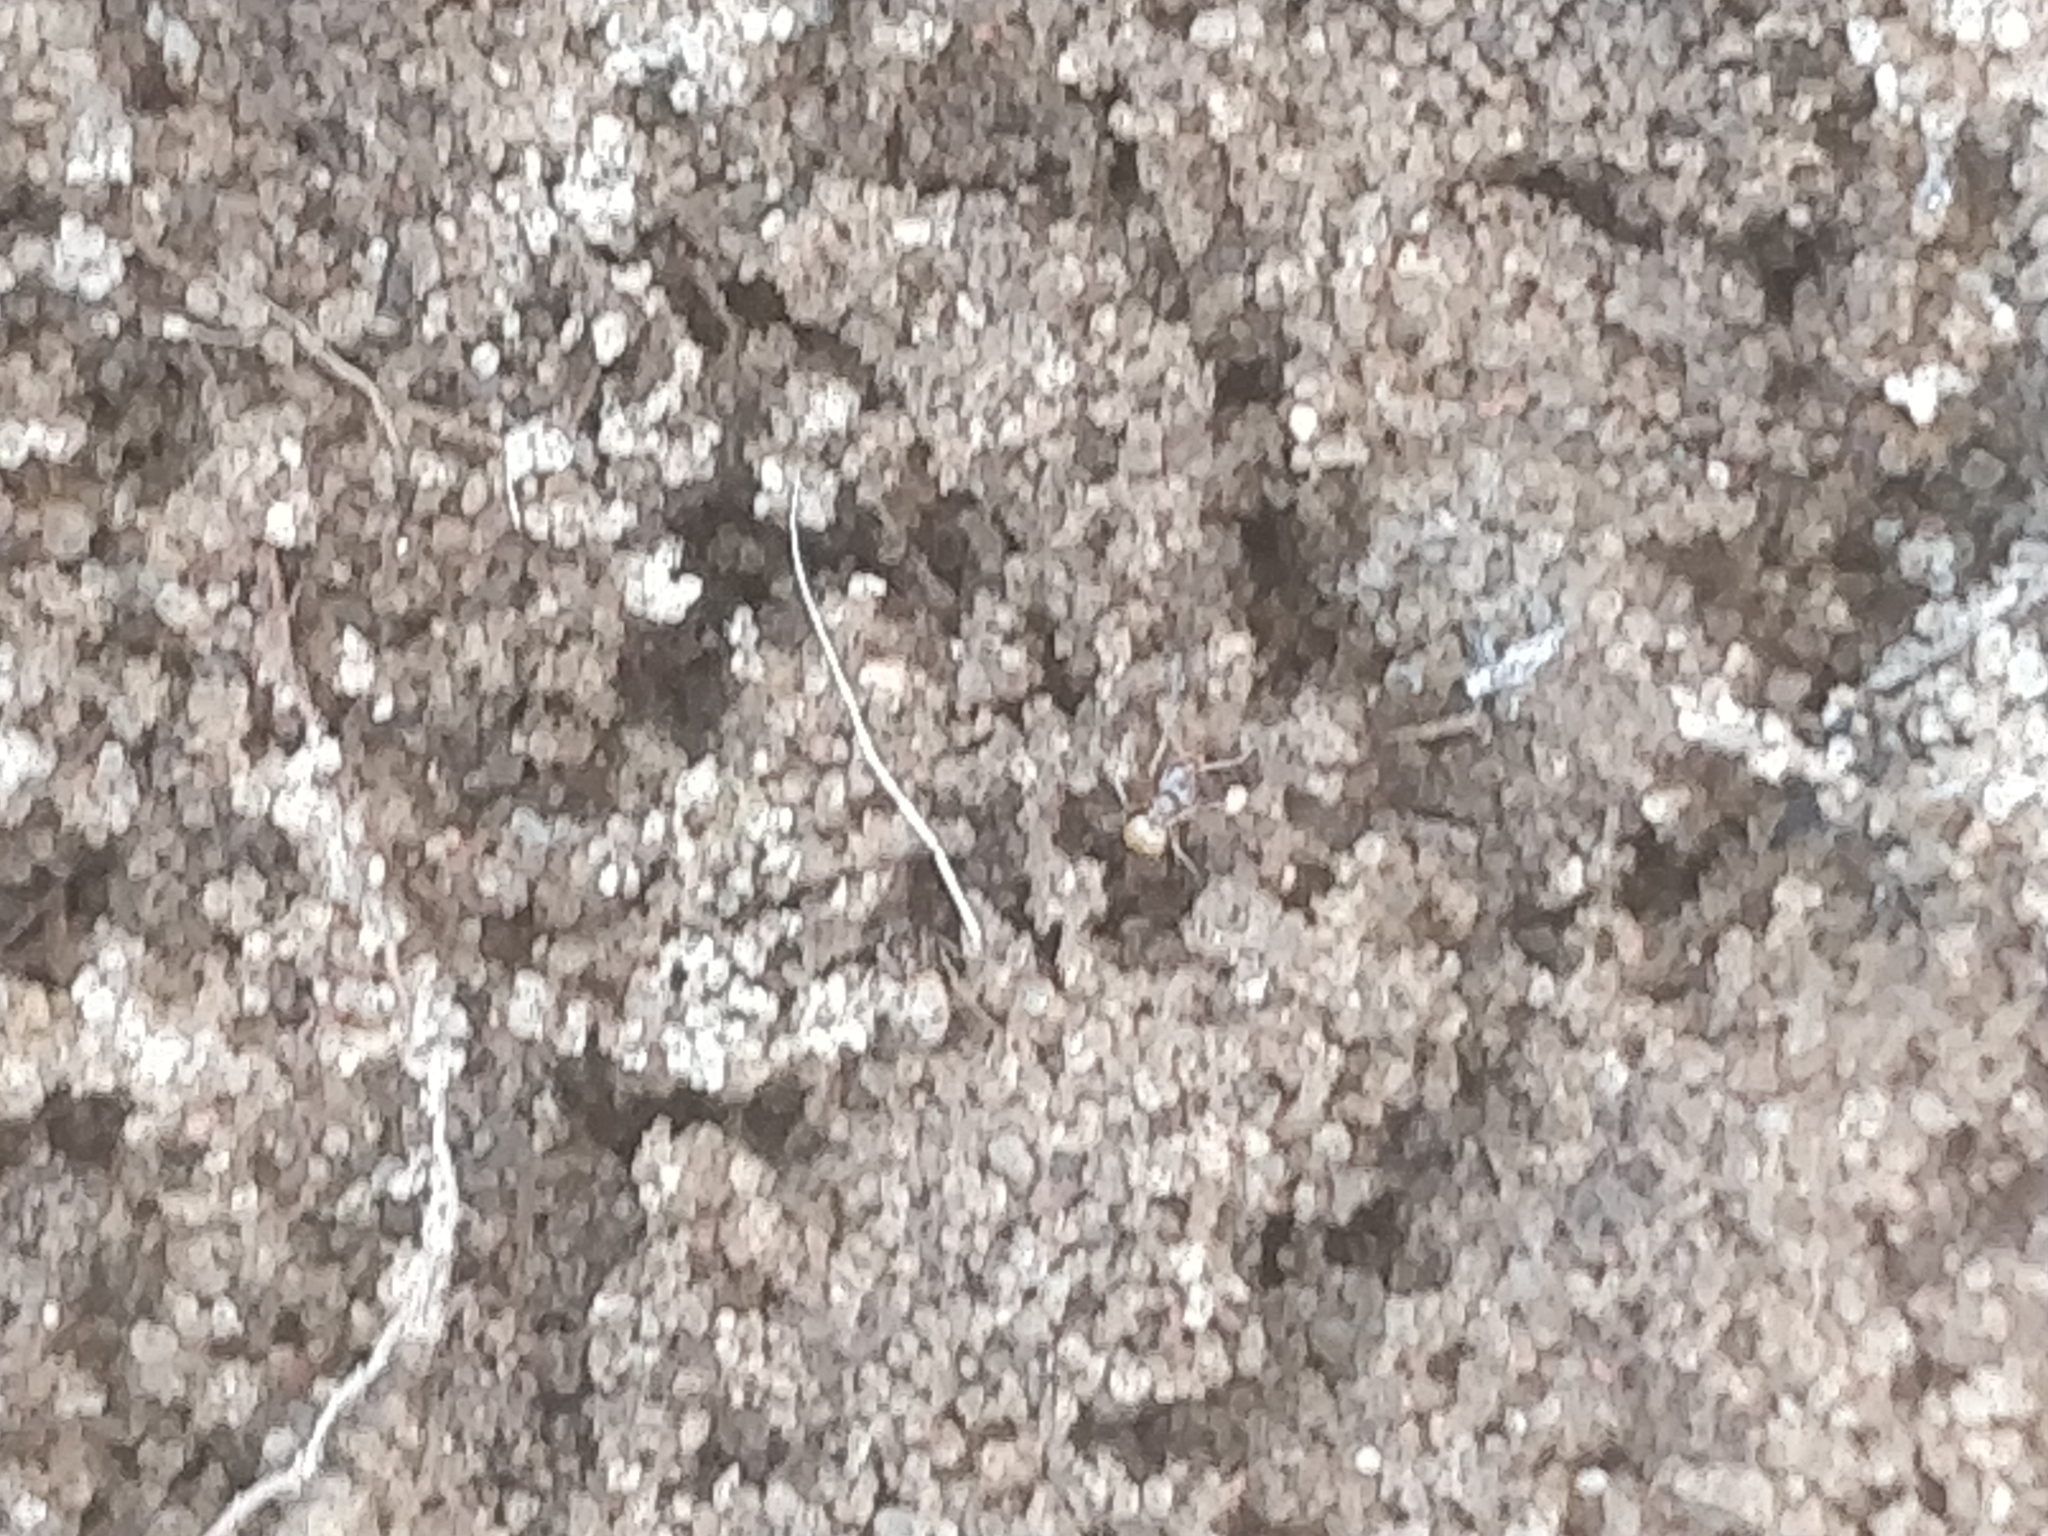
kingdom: Animalia
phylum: Arthropoda
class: Insecta
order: Hymenoptera
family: Formicidae
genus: Forelius
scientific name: Forelius pruinosus
